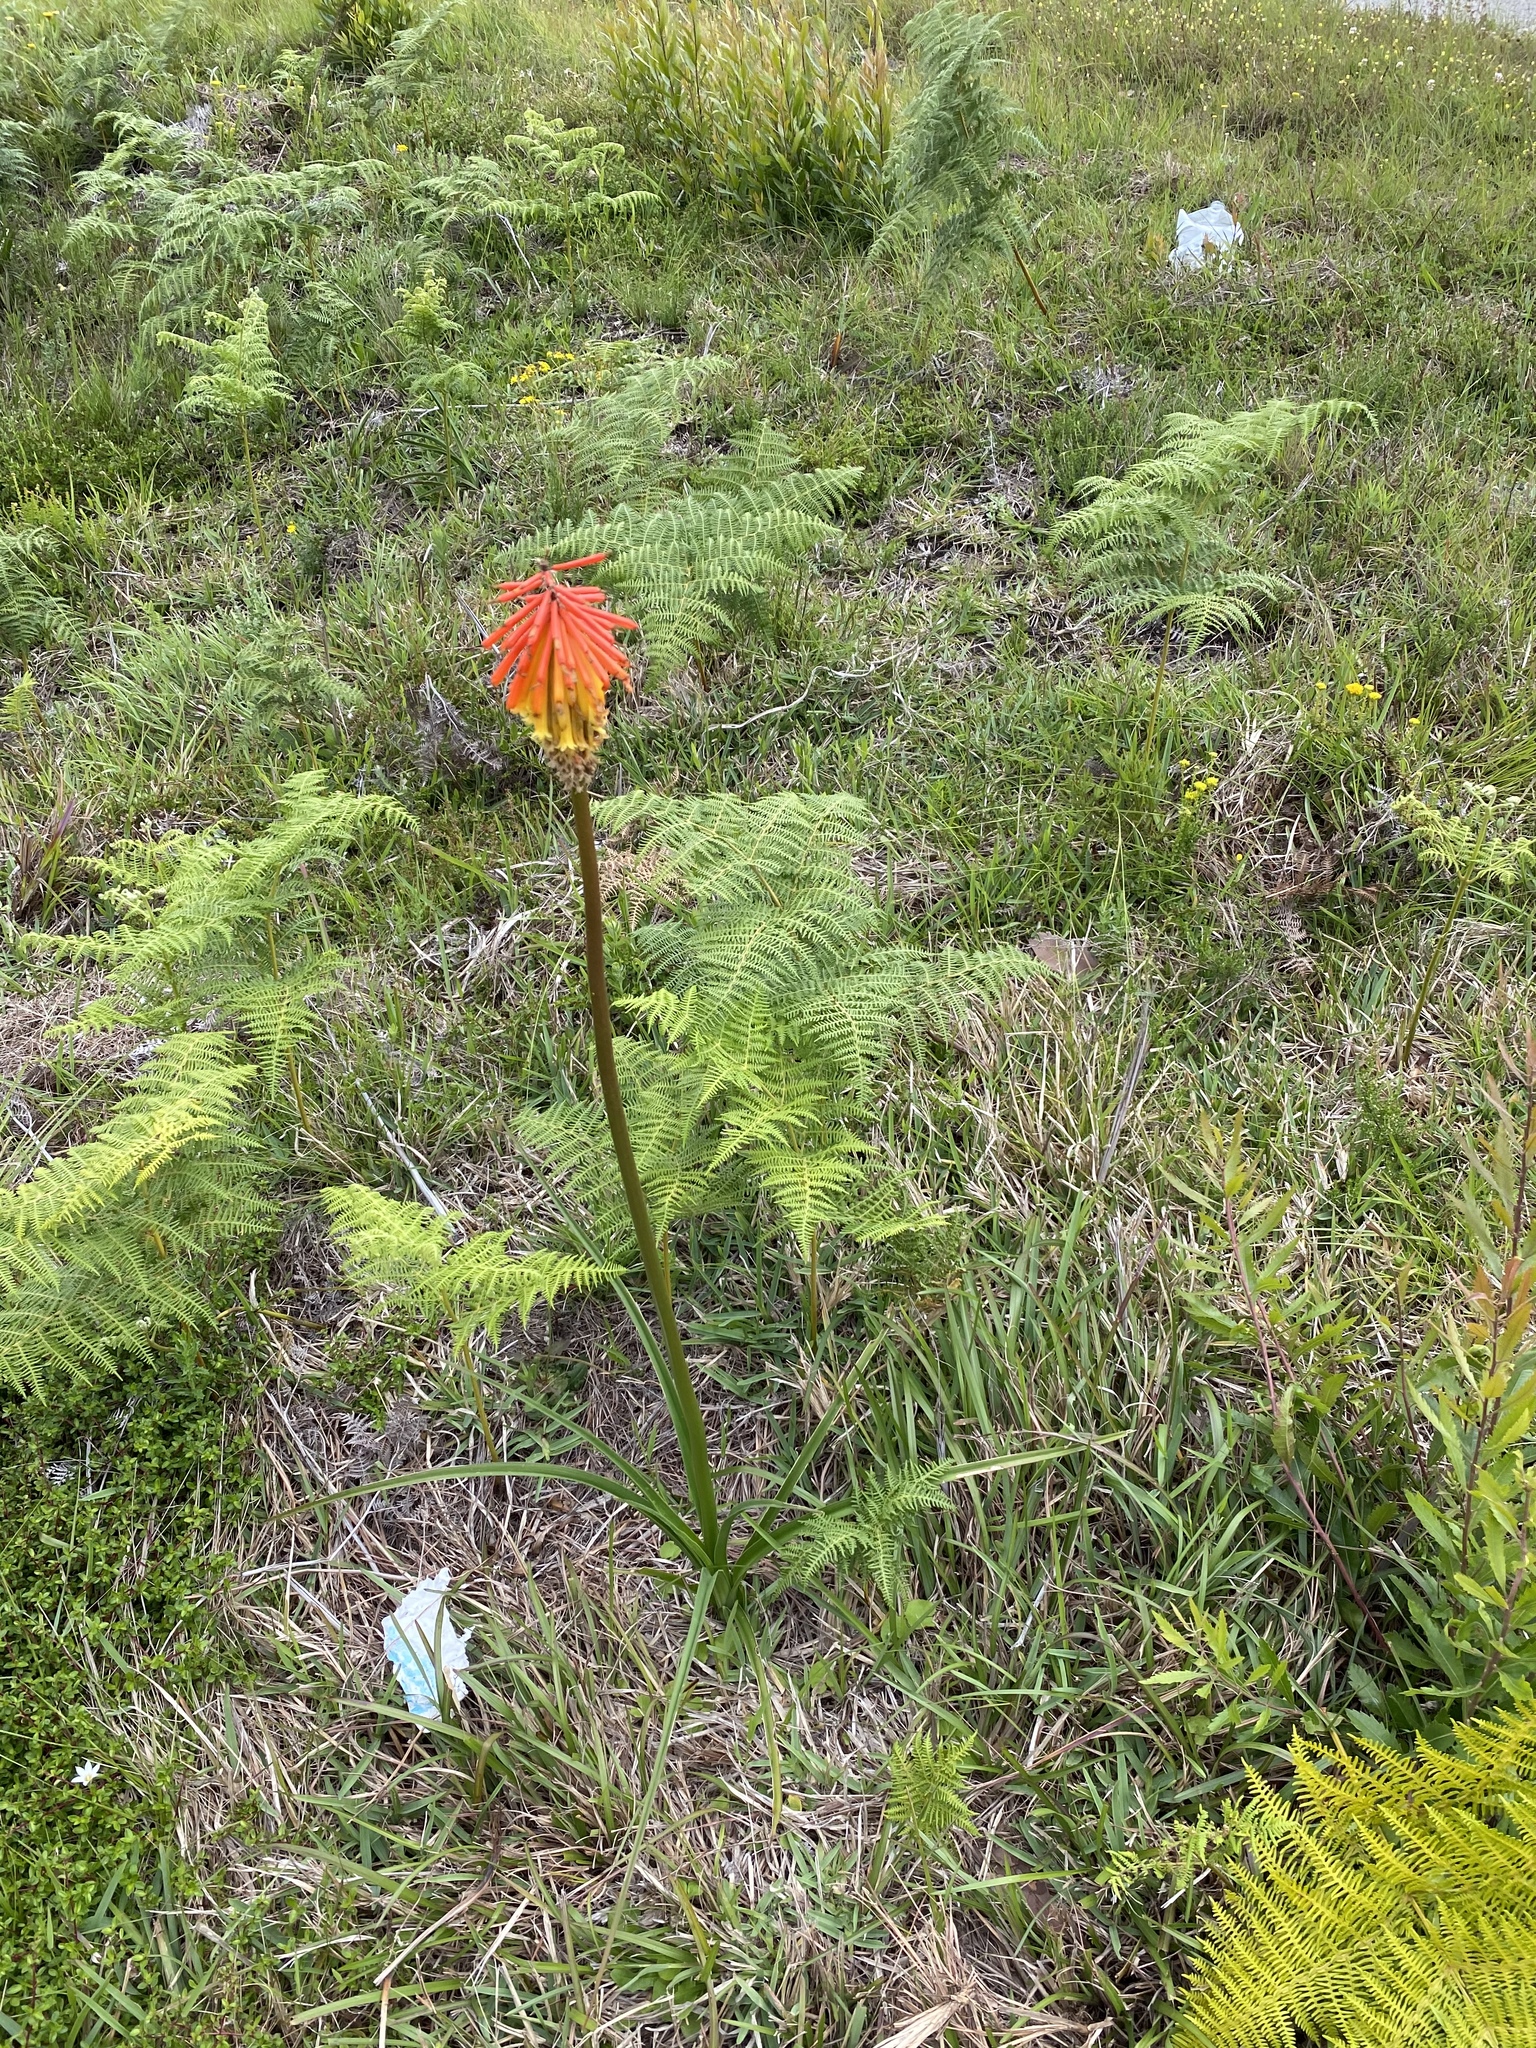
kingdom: Plantae
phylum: Tracheophyta
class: Liliopsida
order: Asparagales
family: Asphodelaceae
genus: Kniphofia
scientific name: Kniphofia uvaria
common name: Red-hot-poker
